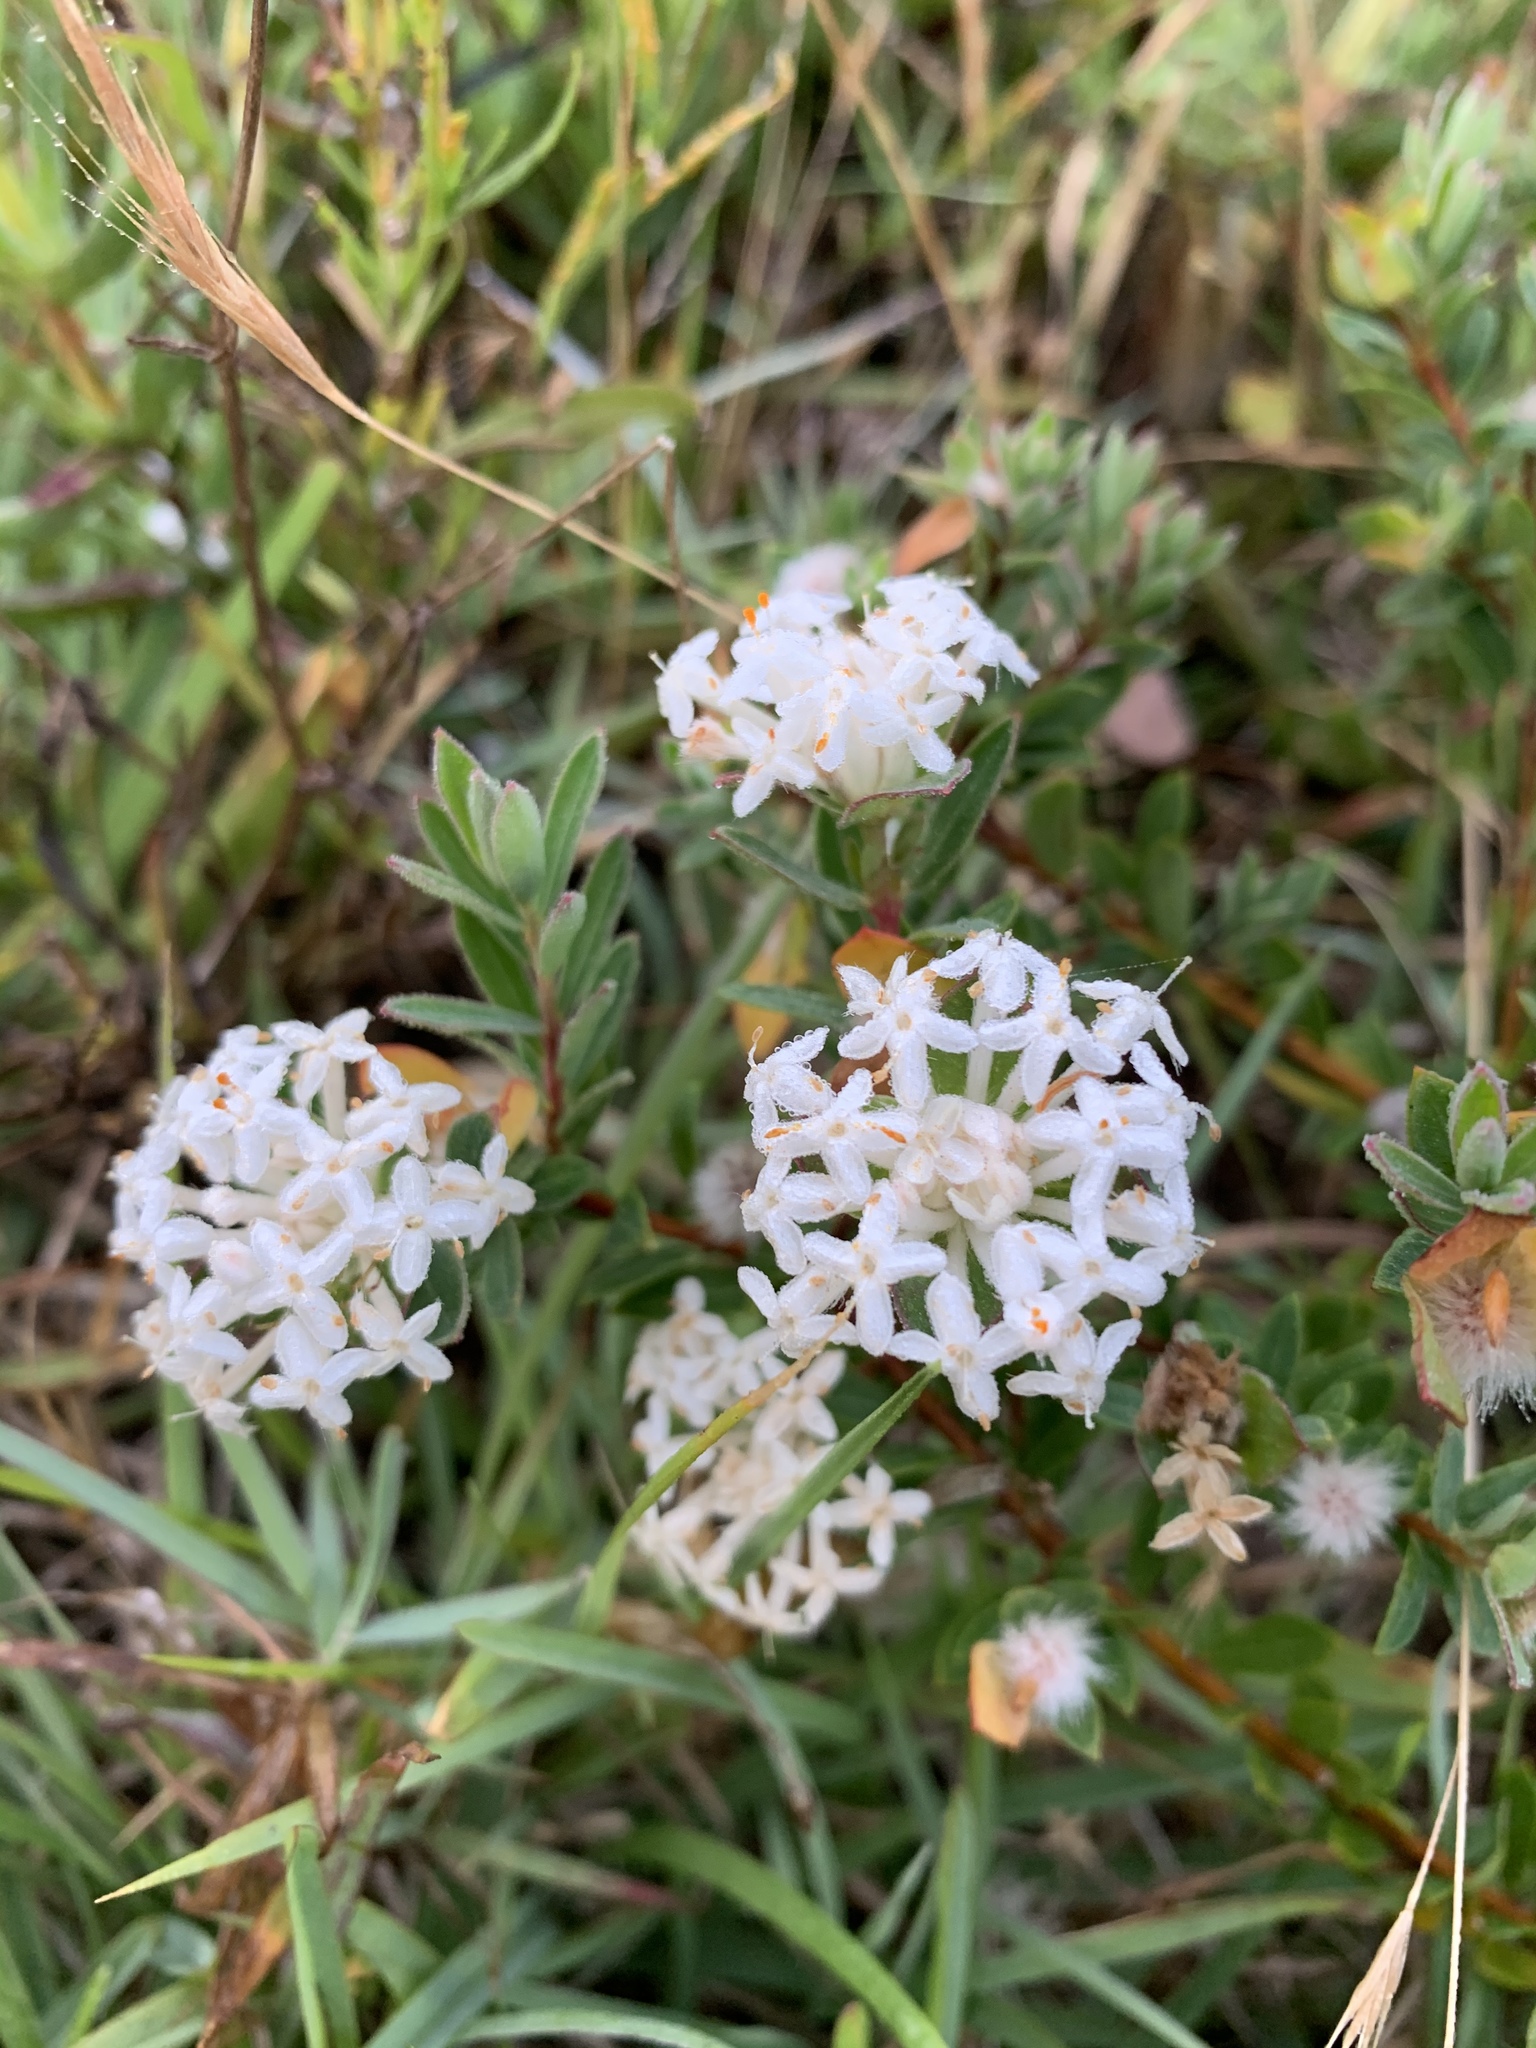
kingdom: Plantae
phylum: Tracheophyta
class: Magnoliopsida
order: Malvales
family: Thymelaeaceae
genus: Pimelea
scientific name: Pimelea linifolia
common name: Queen-of-the-bush
